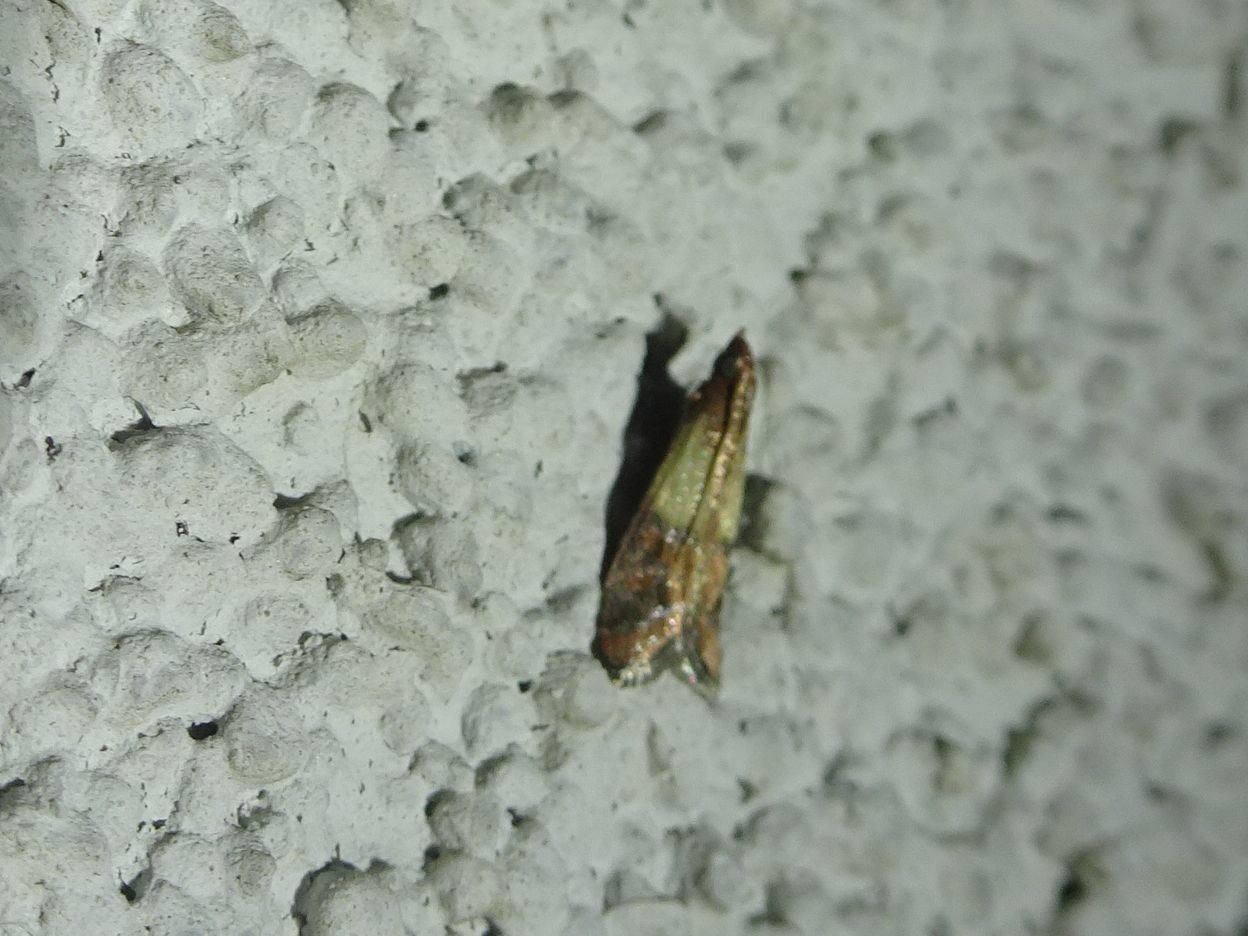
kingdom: Animalia
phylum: Arthropoda
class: Insecta
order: Lepidoptera
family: Pyralidae
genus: Plodia
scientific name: Plodia interpunctella
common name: Indian meal moth
